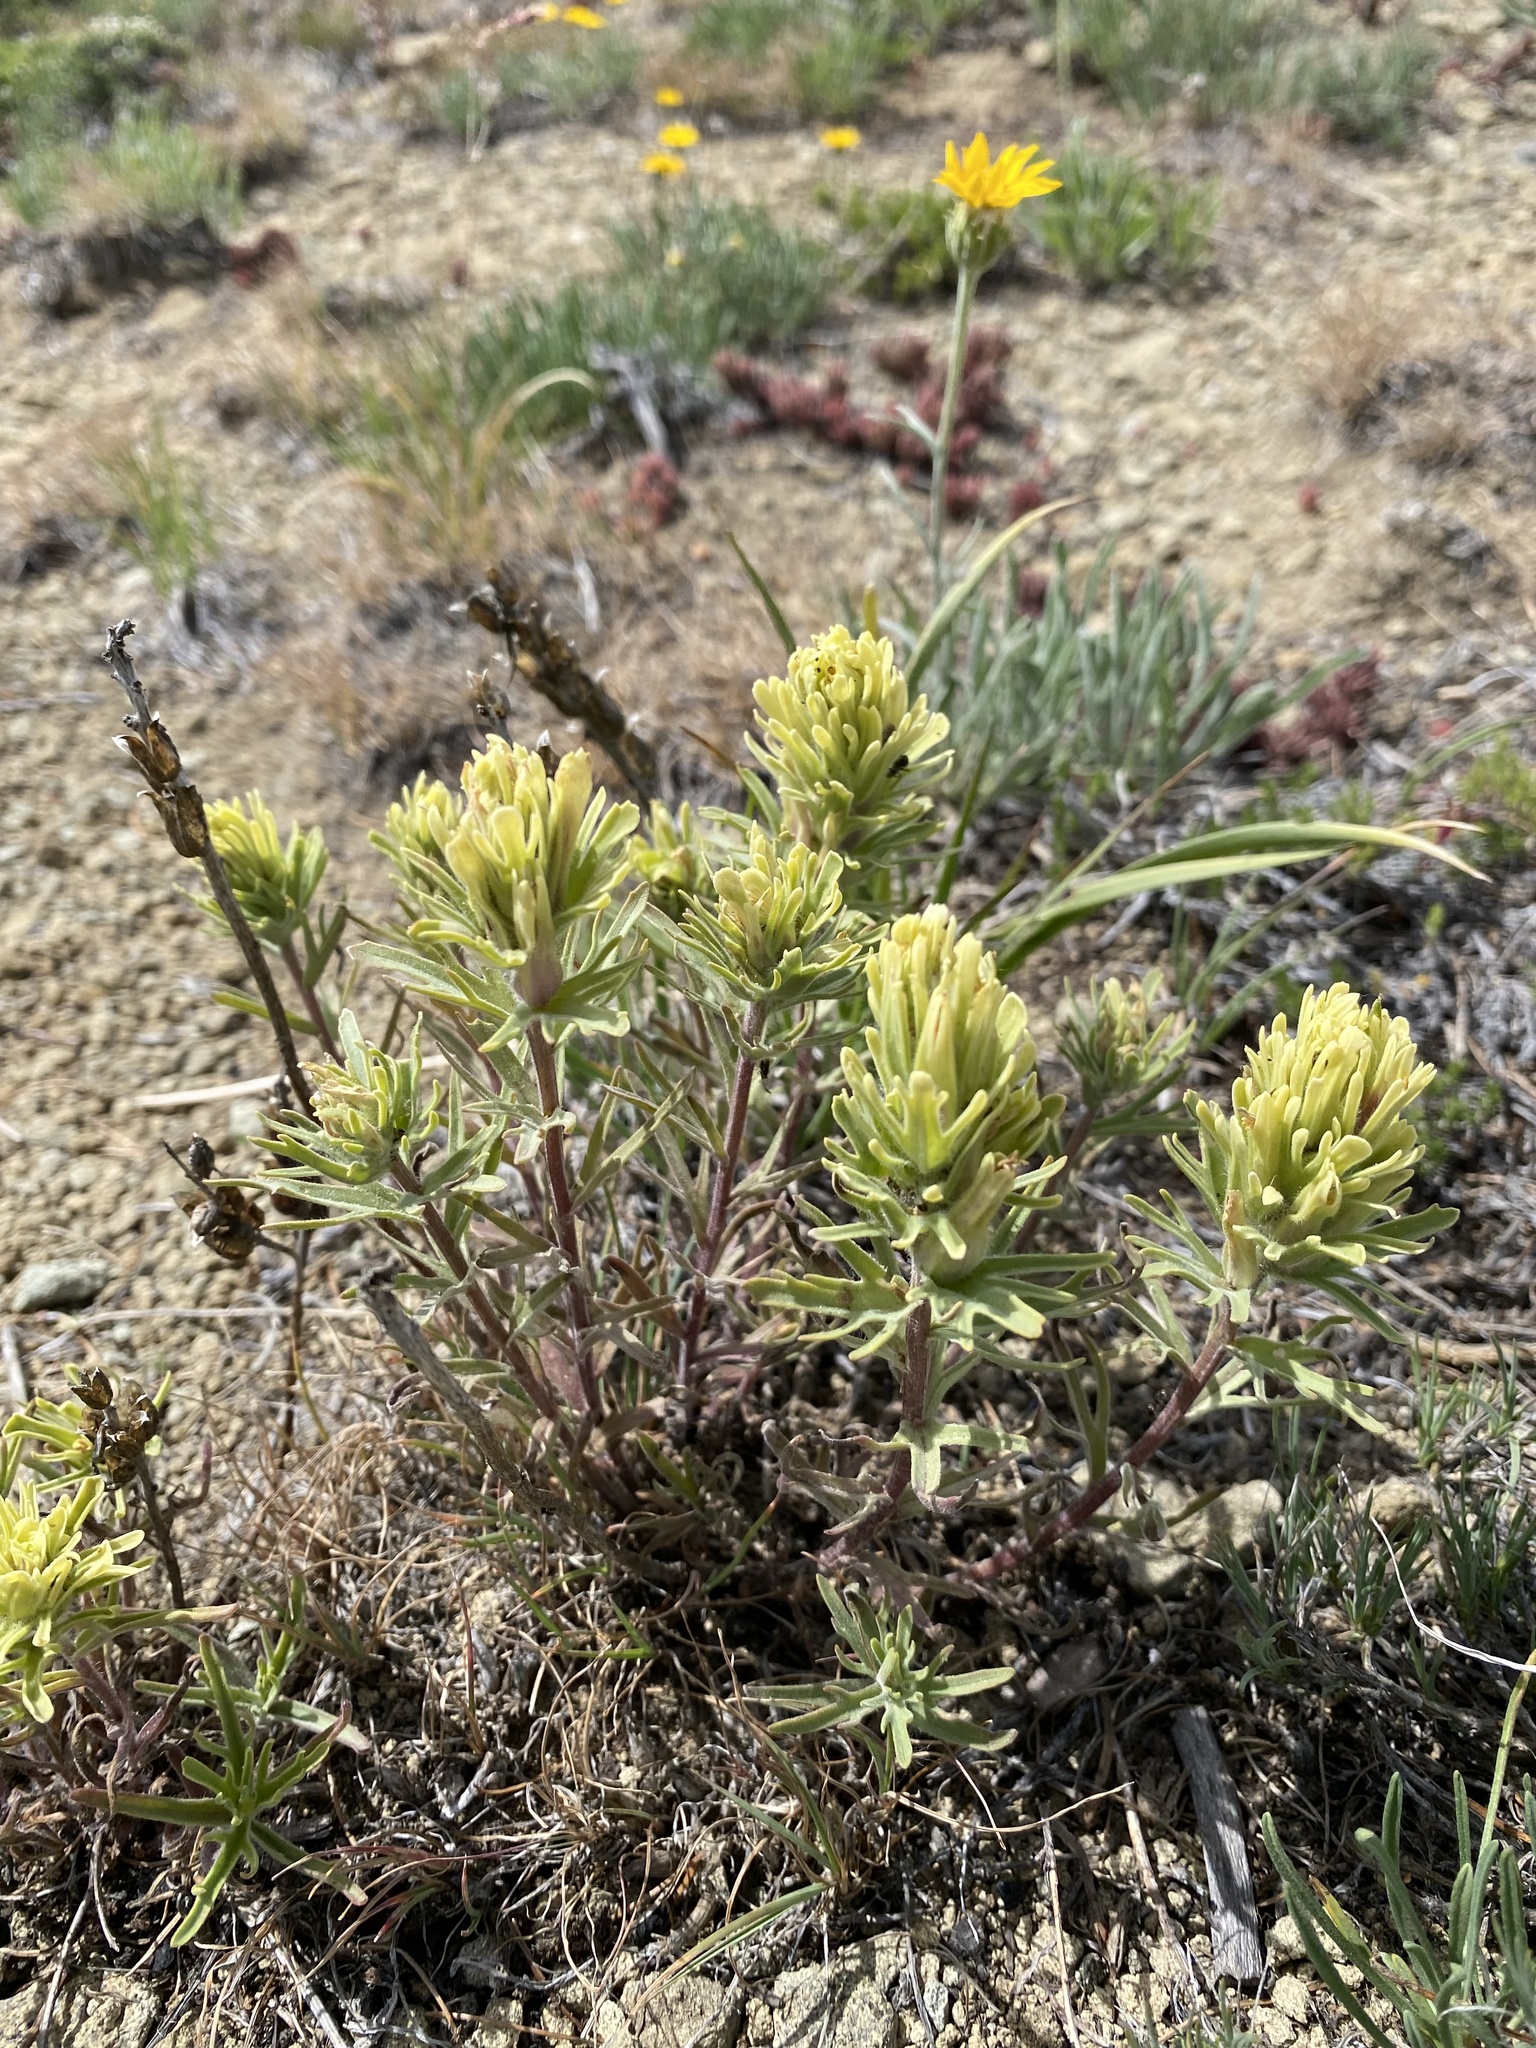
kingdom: Plantae
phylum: Tracheophyta
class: Magnoliopsida
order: Lamiales
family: Orobanchaceae
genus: Castilleja
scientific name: Castilleja thompsonii
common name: Thompson's paintbrush
